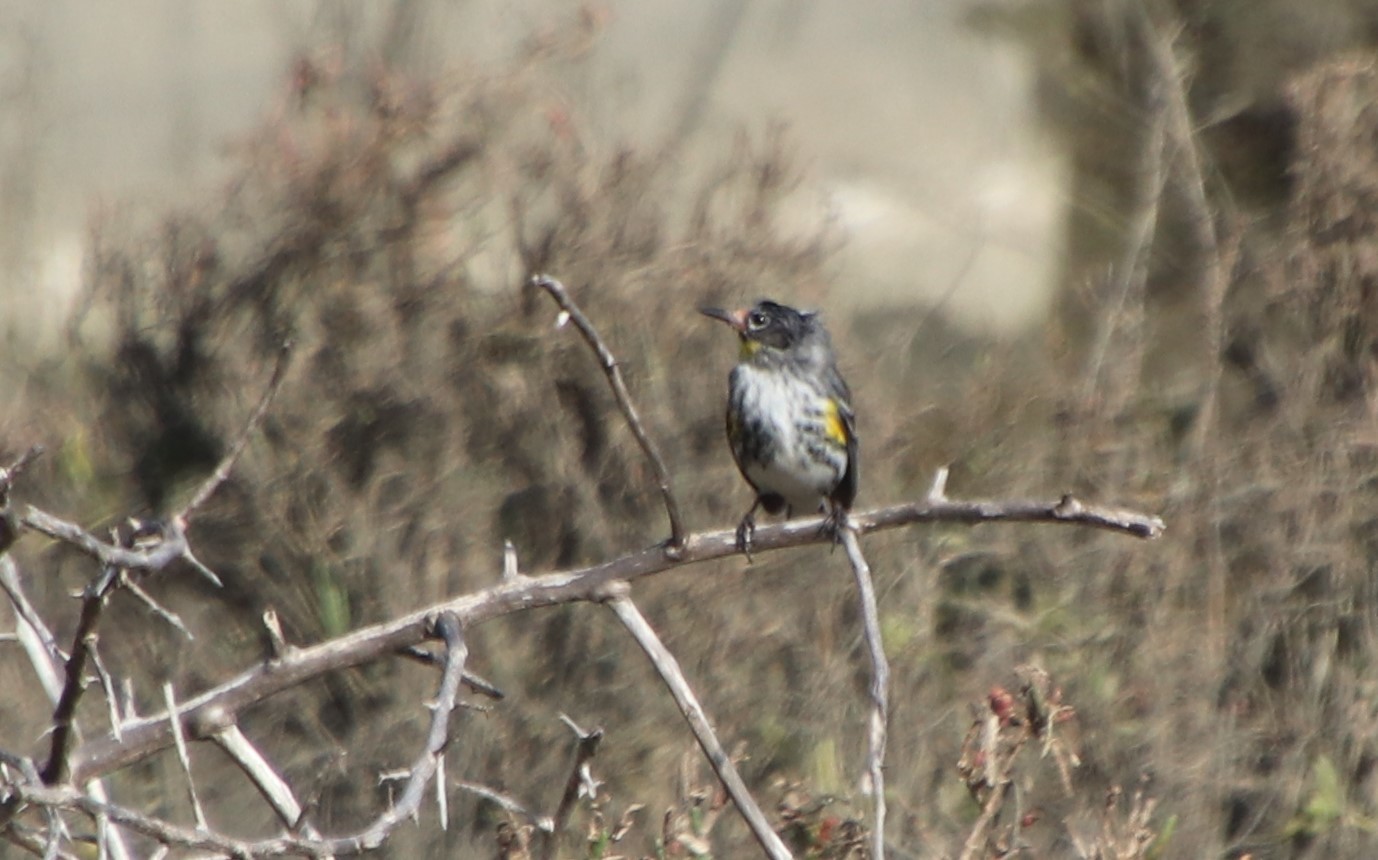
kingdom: Animalia
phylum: Chordata
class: Aves
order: Passeriformes
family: Parulidae
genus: Setophaga
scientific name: Setophaga coronata
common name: Myrtle warbler
